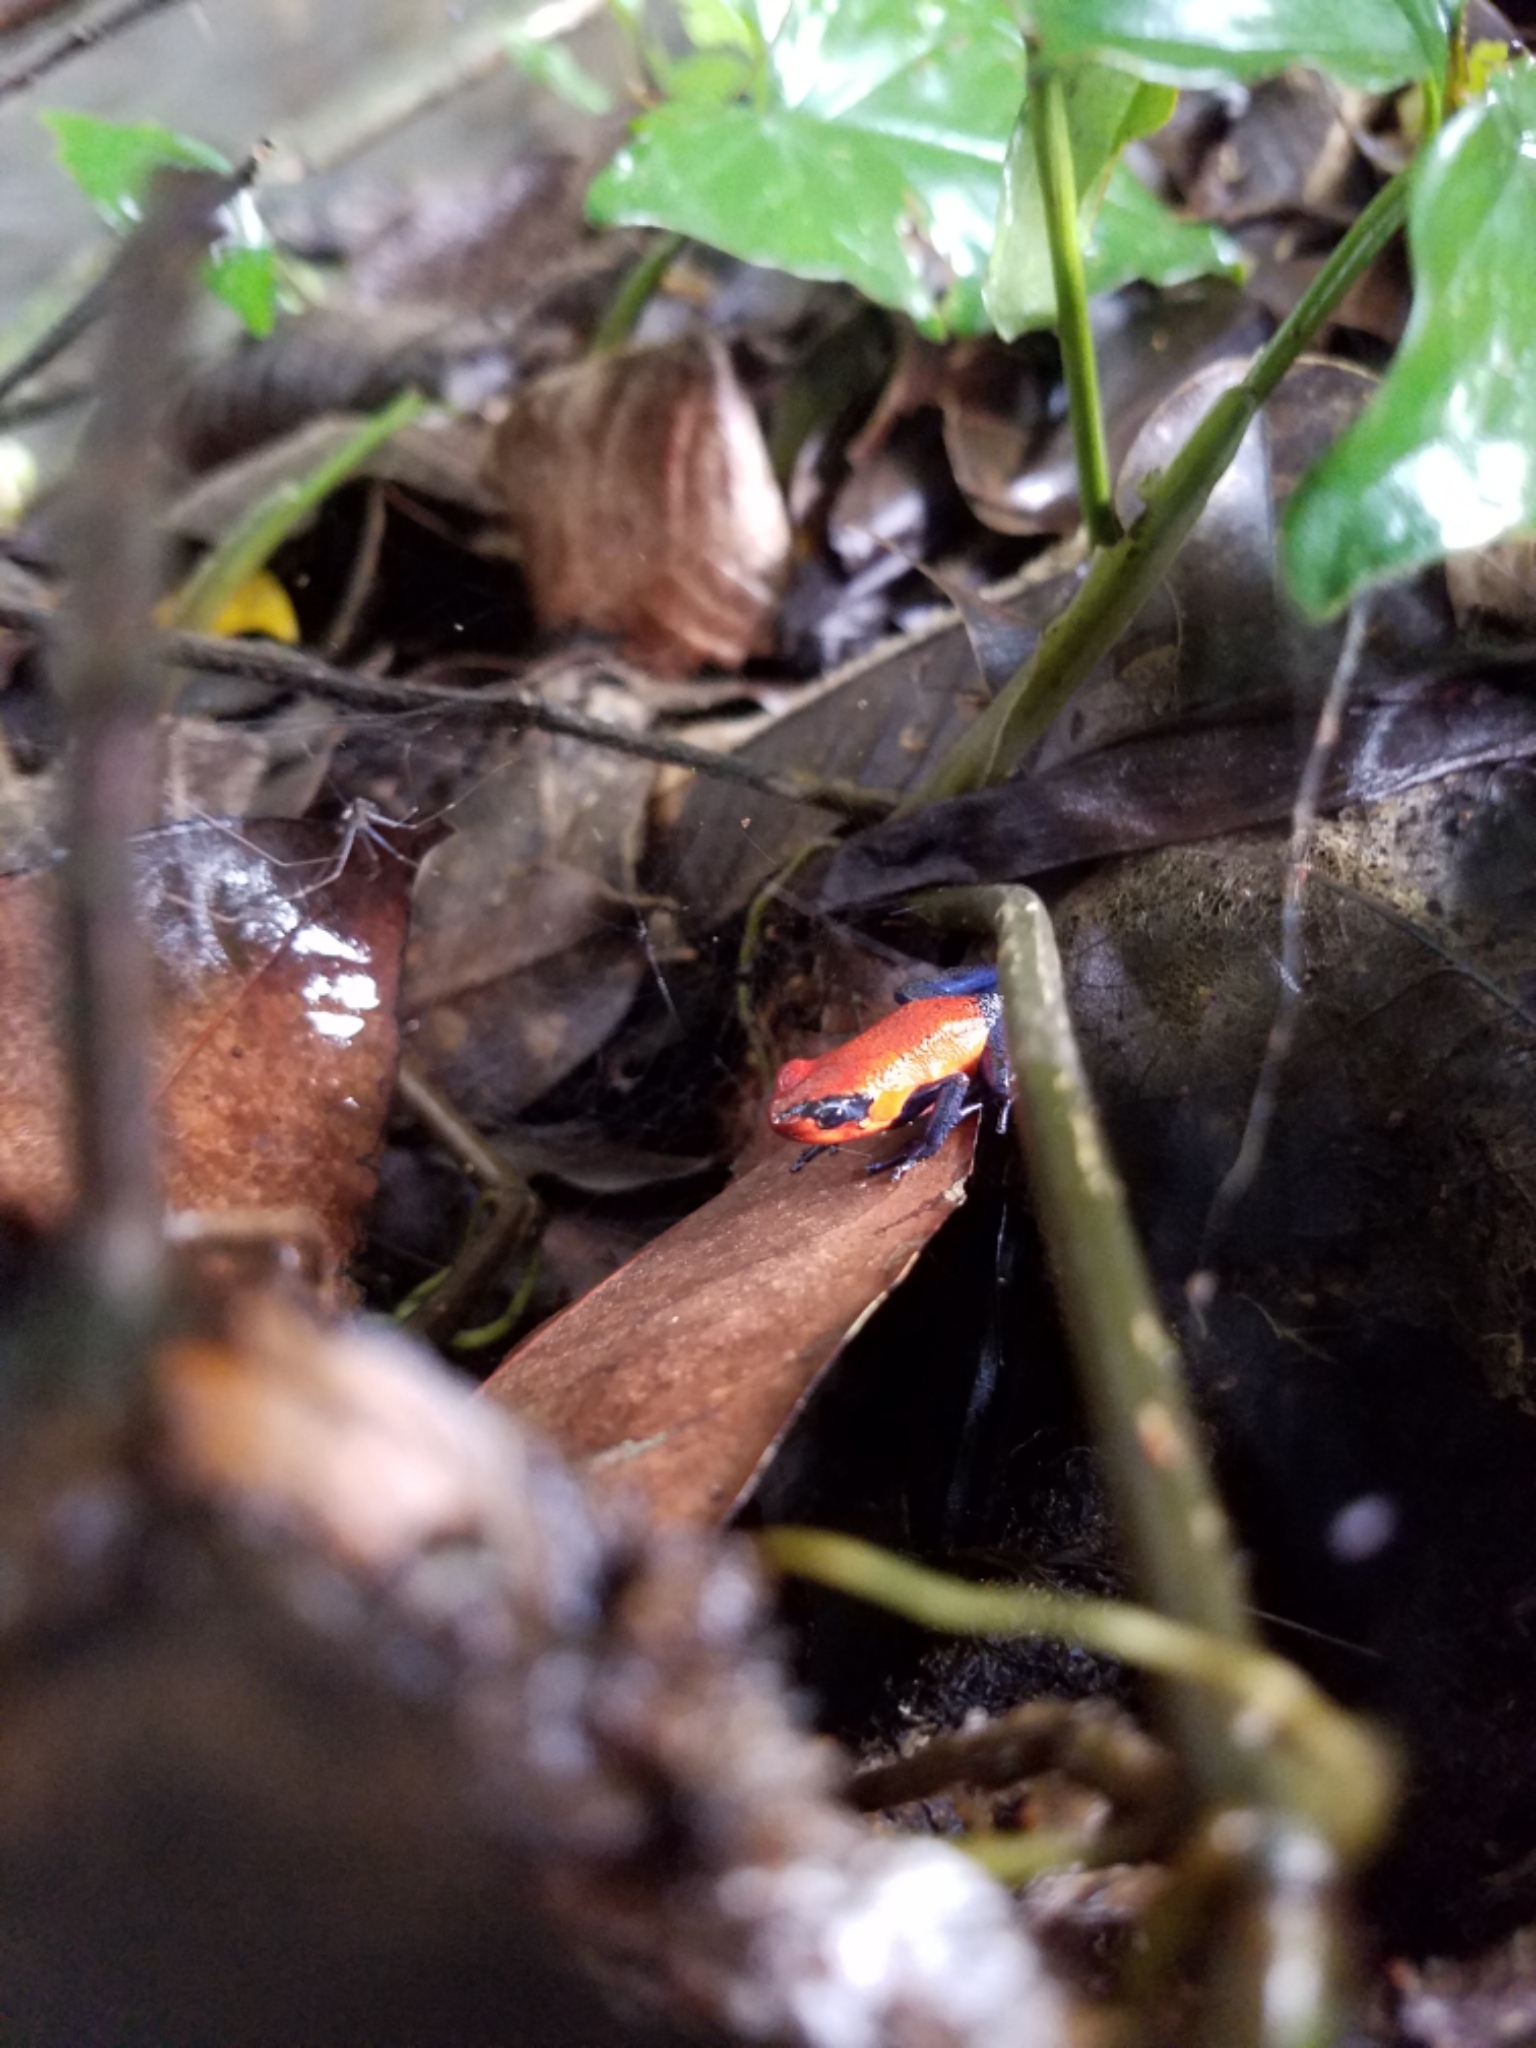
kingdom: Animalia
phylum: Chordata
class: Amphibia
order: Anura
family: Dendrobatidae
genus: Oophaga
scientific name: Oophaga pumilio
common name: Flaming poison frog
